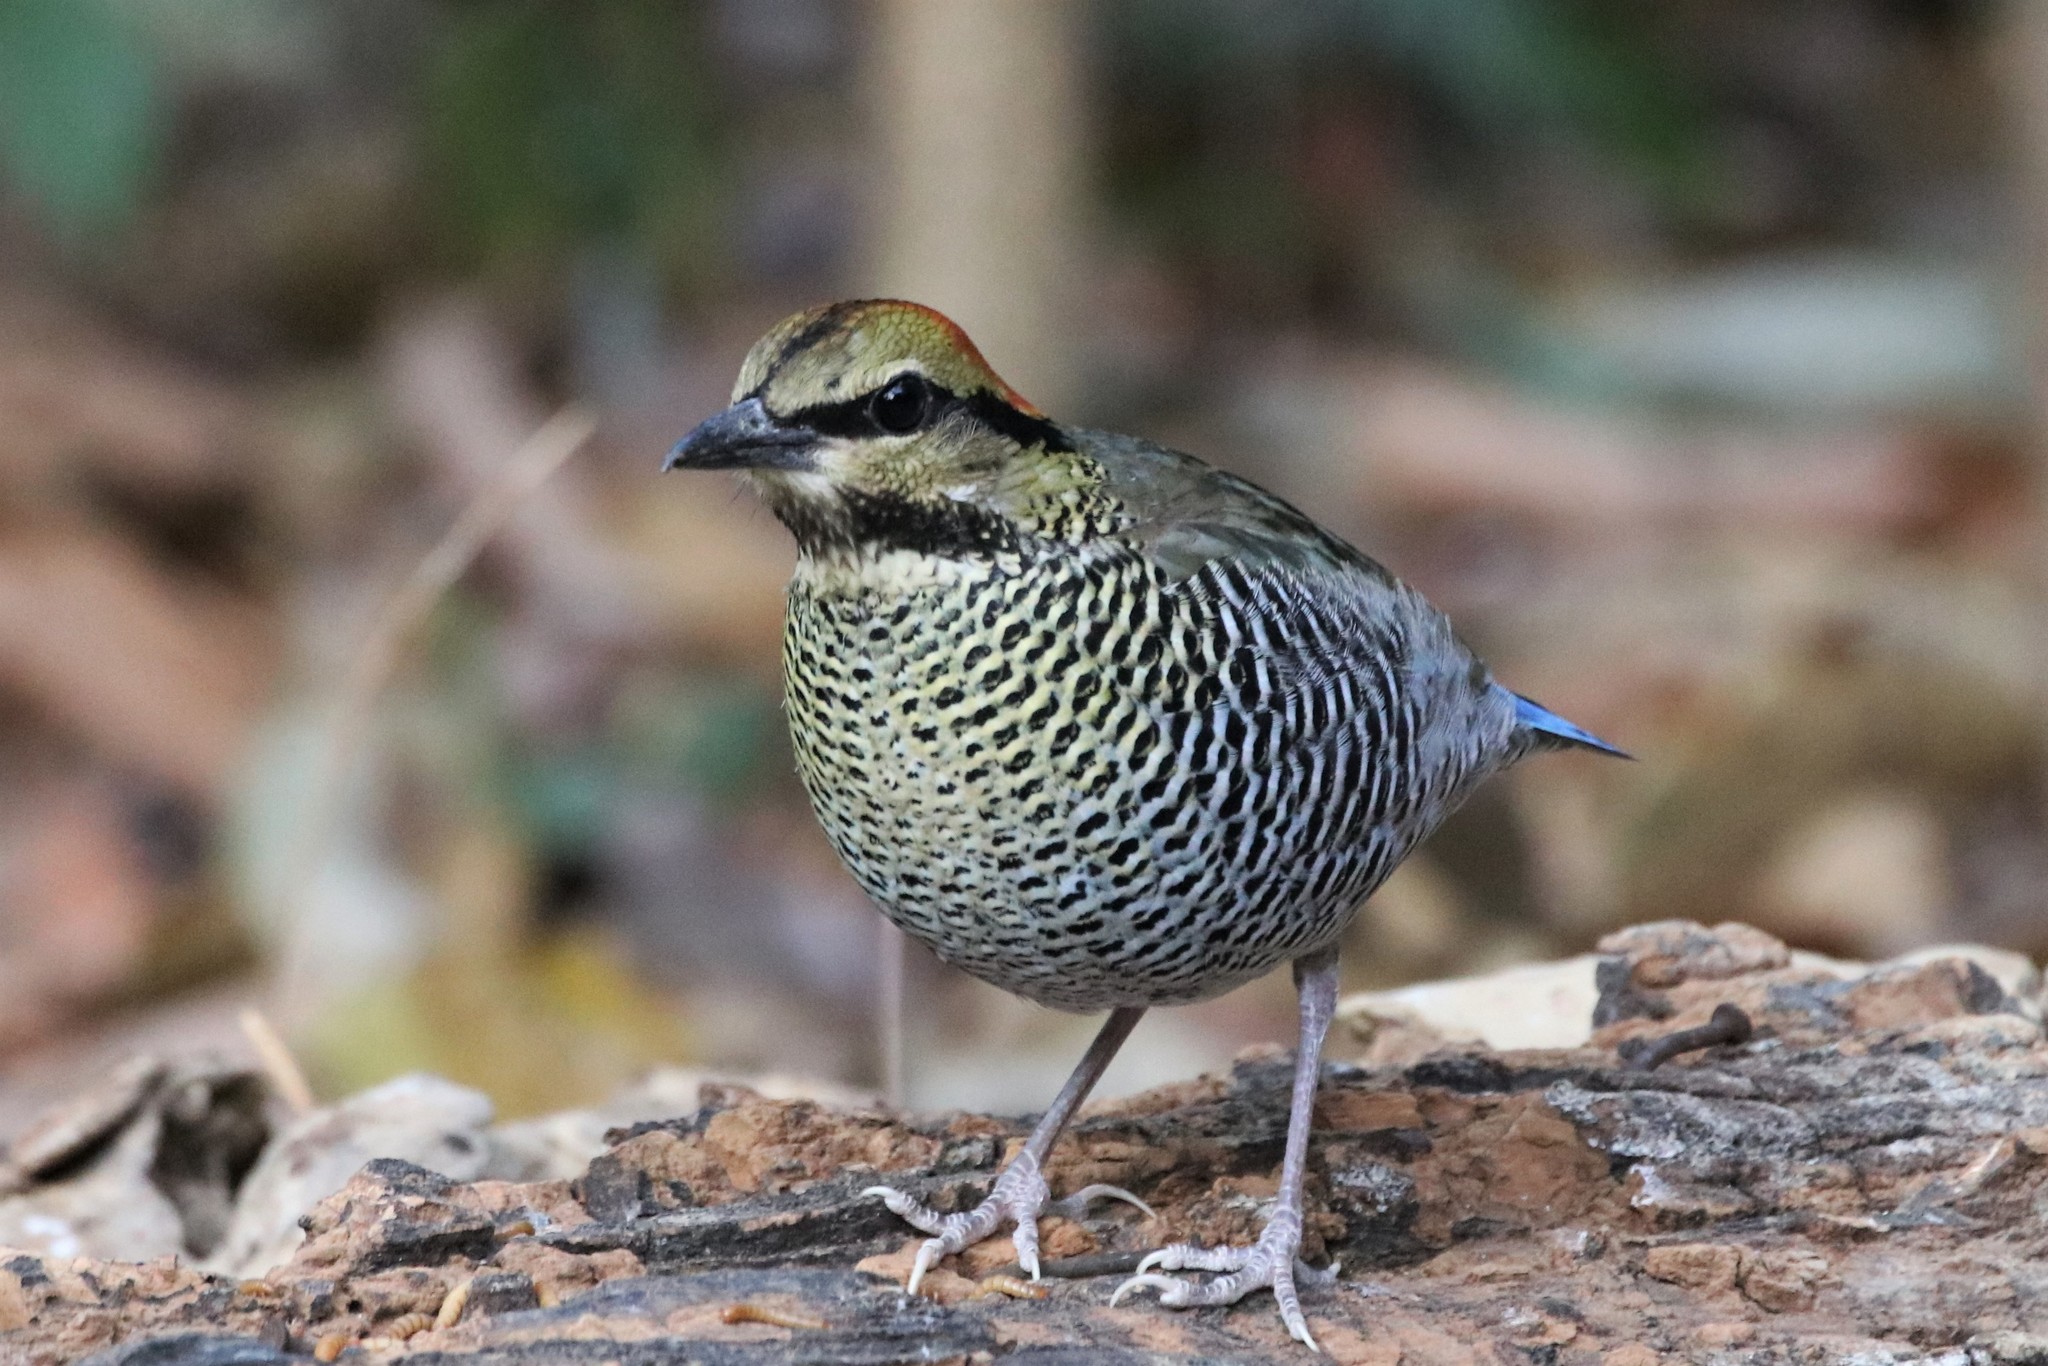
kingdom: Animalia
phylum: Chordata
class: Aves
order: Passeriformes
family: Pittidae
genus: Pitta
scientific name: Pitta cyanea
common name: Blue pitta
